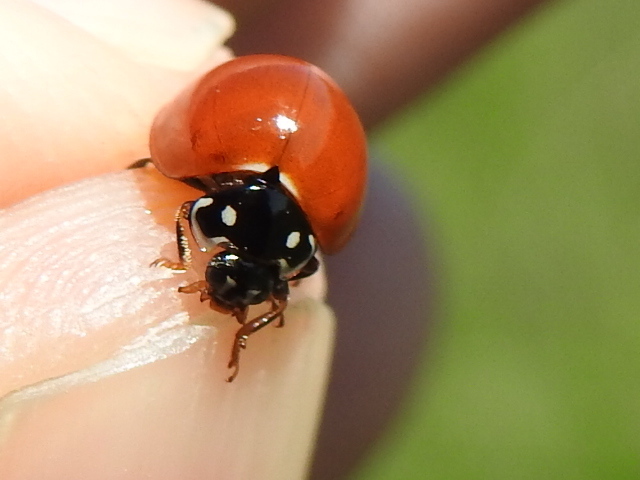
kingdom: Animalia
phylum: Arthropoda
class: Insecta
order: Coleoptera
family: Coccinellidae
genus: Cycloneda
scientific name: Cycloneda sanguinea
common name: Ladybird beetle
